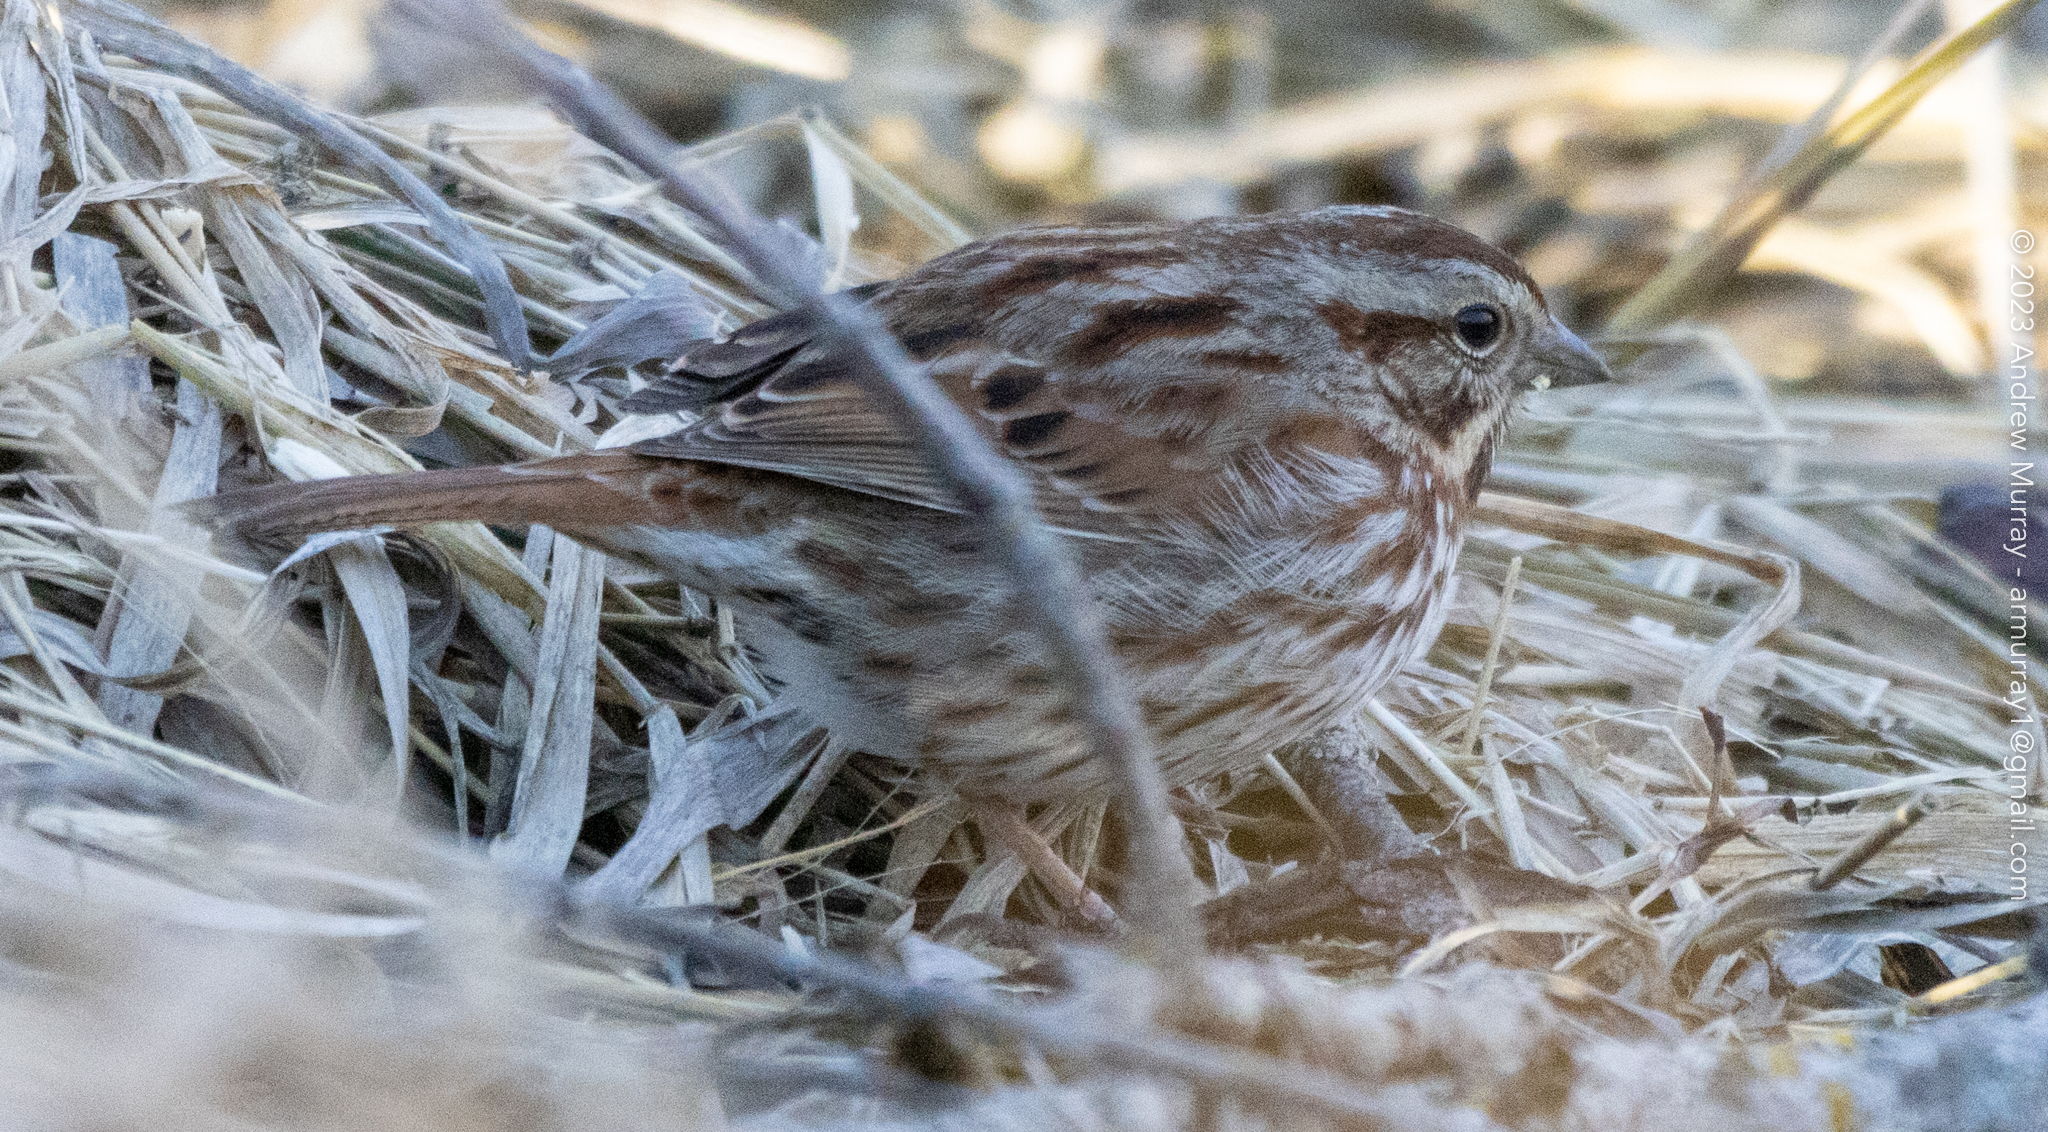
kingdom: Animalia
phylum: Chordata
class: Aves
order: Passeriformes
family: Passerellidae
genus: Melospiza
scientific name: Melospiza melodia
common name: Song sparrow
